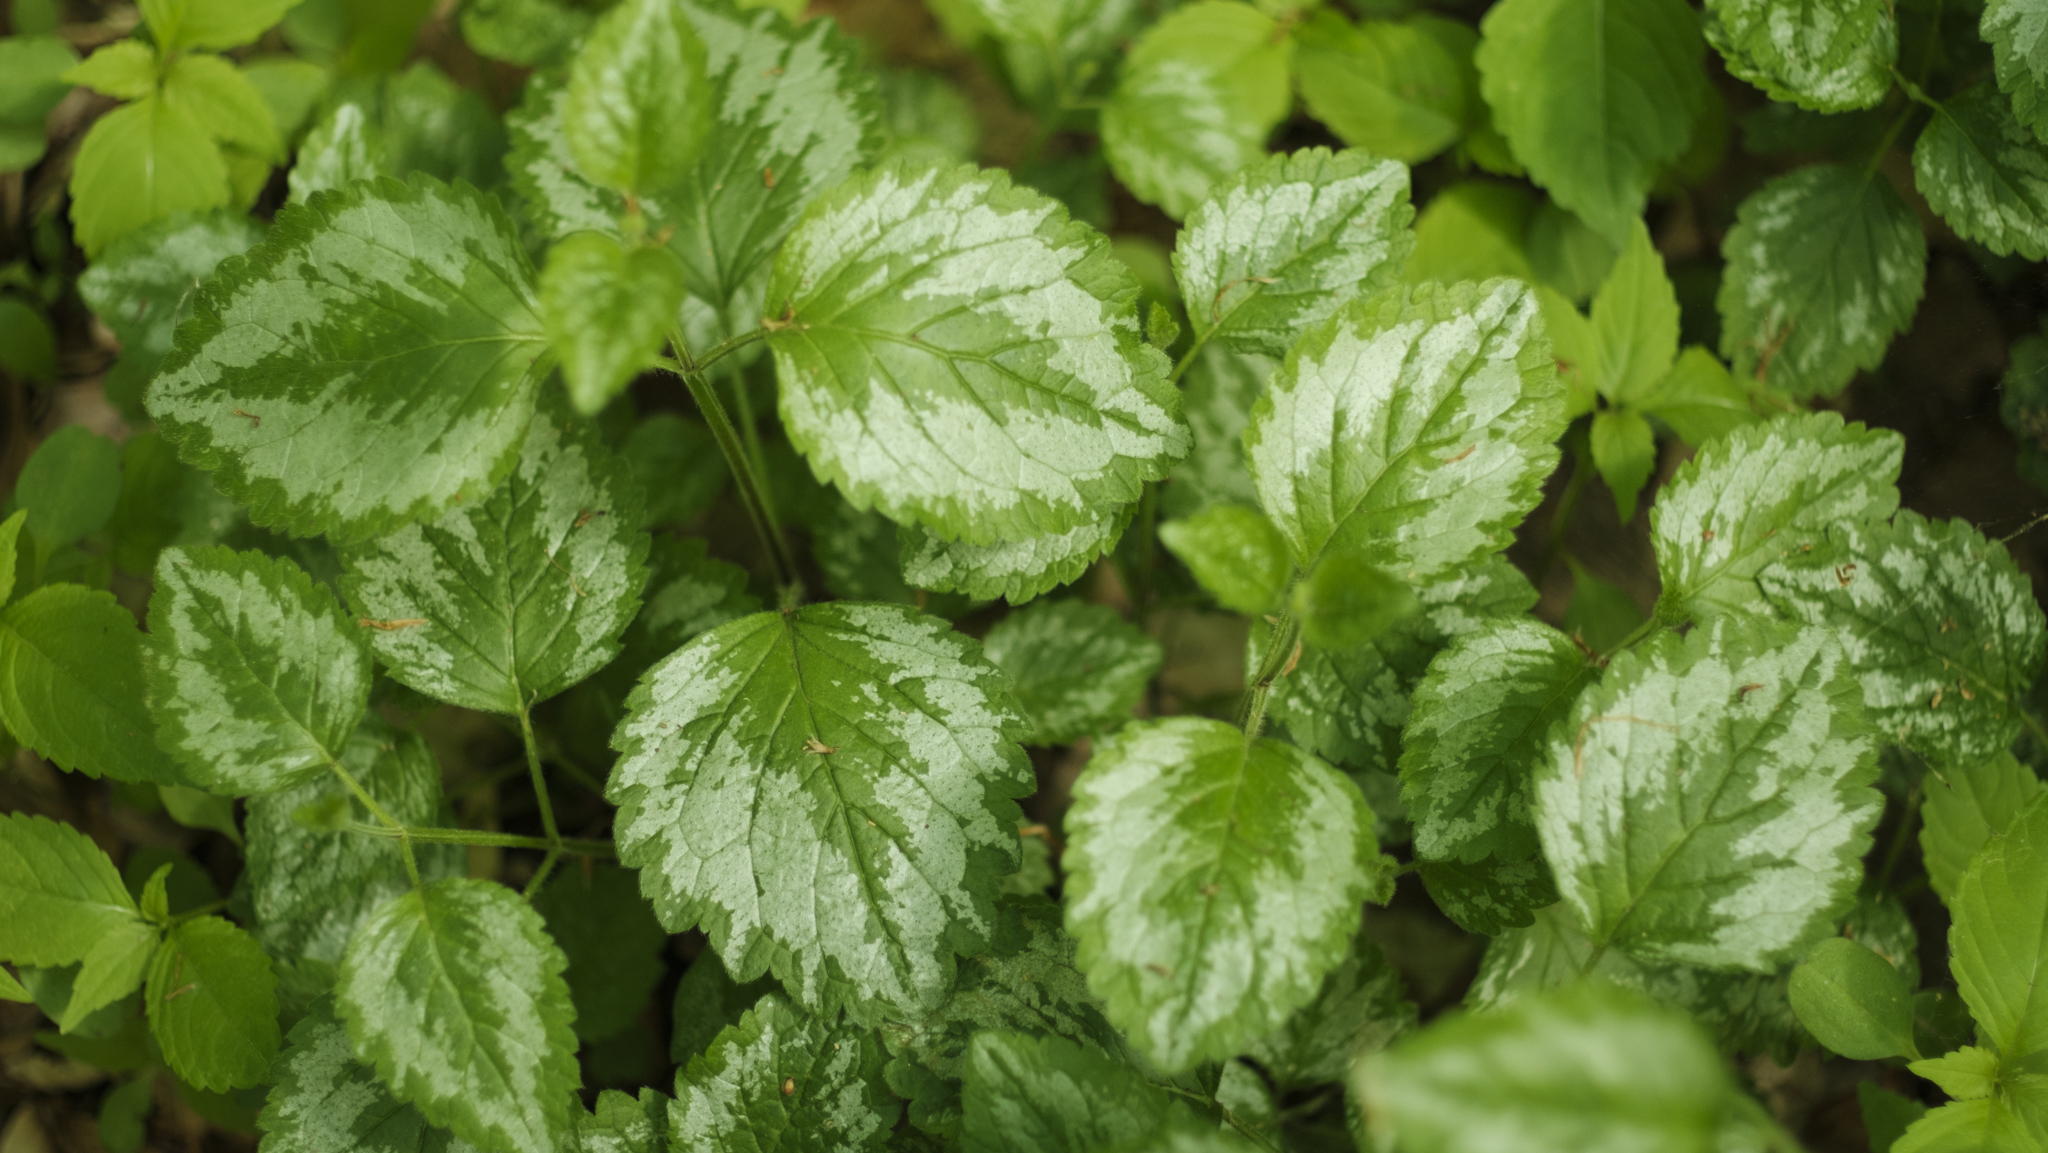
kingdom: Plantae
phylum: Tracheophyta
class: Magnoliopsida
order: Lamiales
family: Lamiaceae
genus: Lamium
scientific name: Lamium galeobdolon
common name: Yellow archangel
